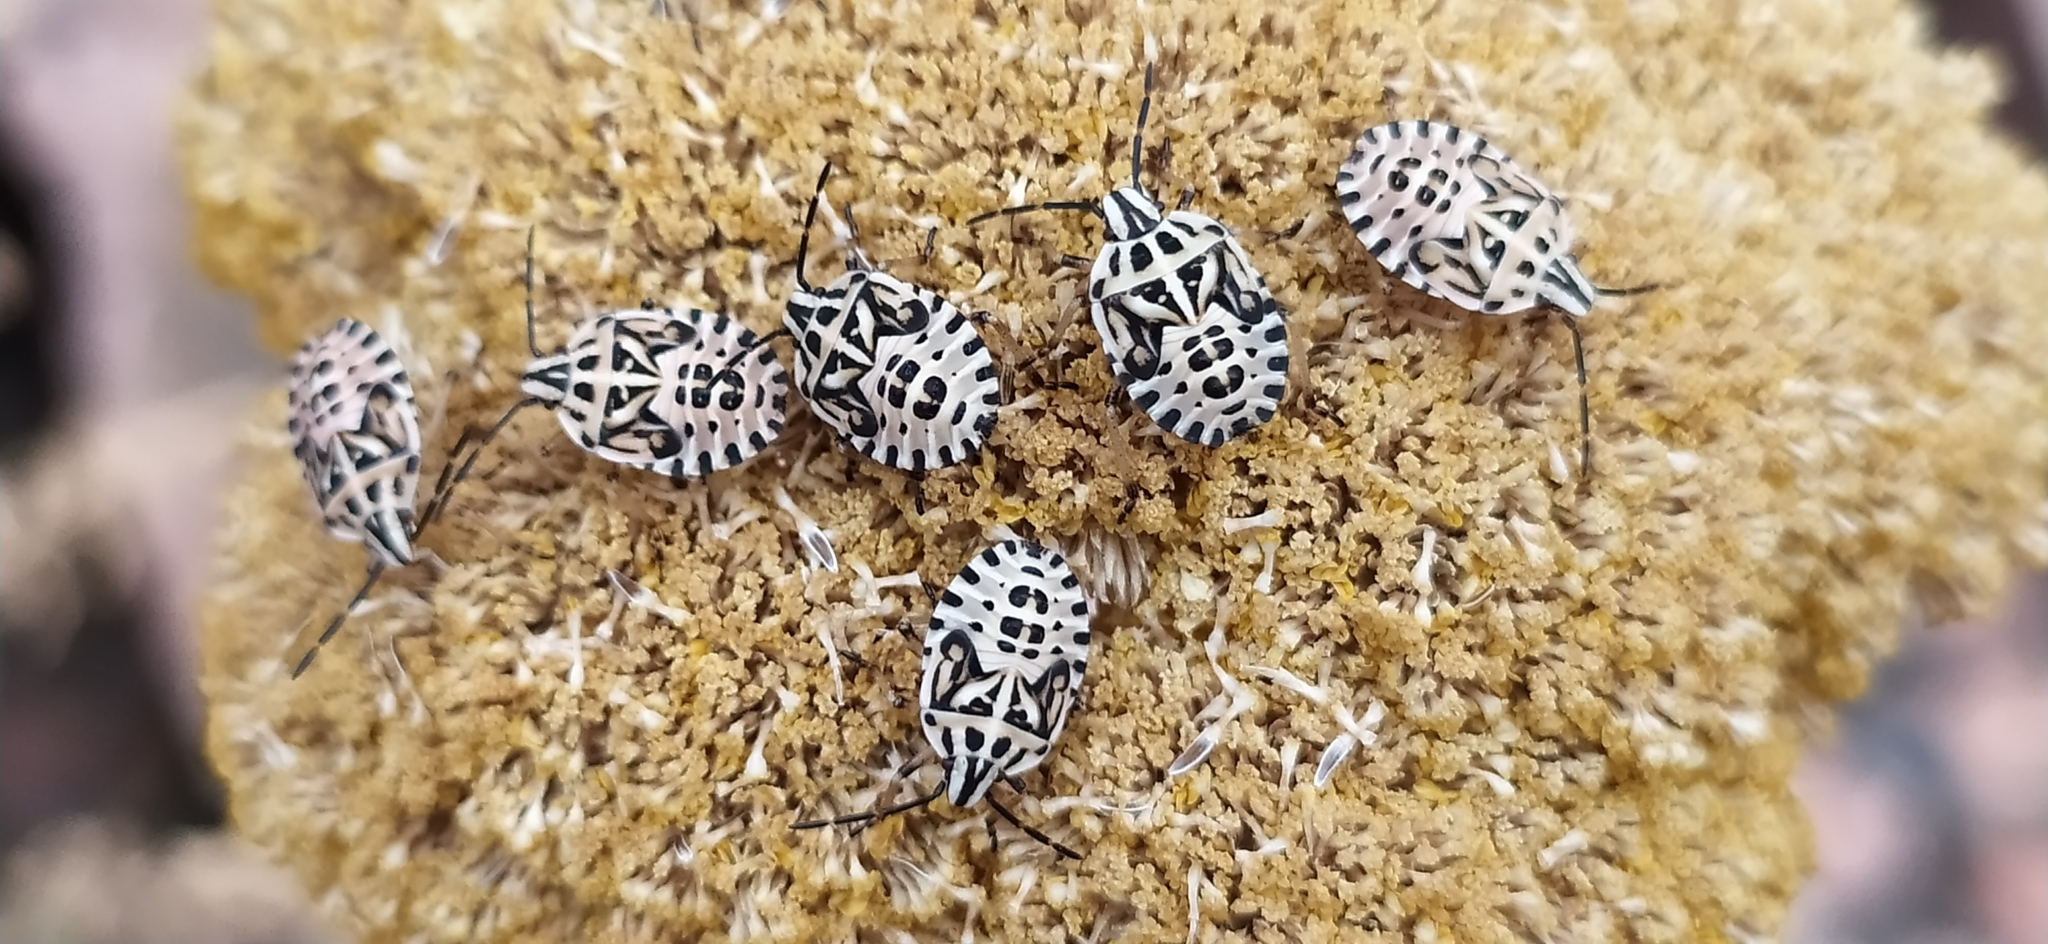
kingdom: Animalia
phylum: Arthropoda
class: Insecta
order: Hemiptera
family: Miridae
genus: Orthops
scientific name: Orthops kalmii
